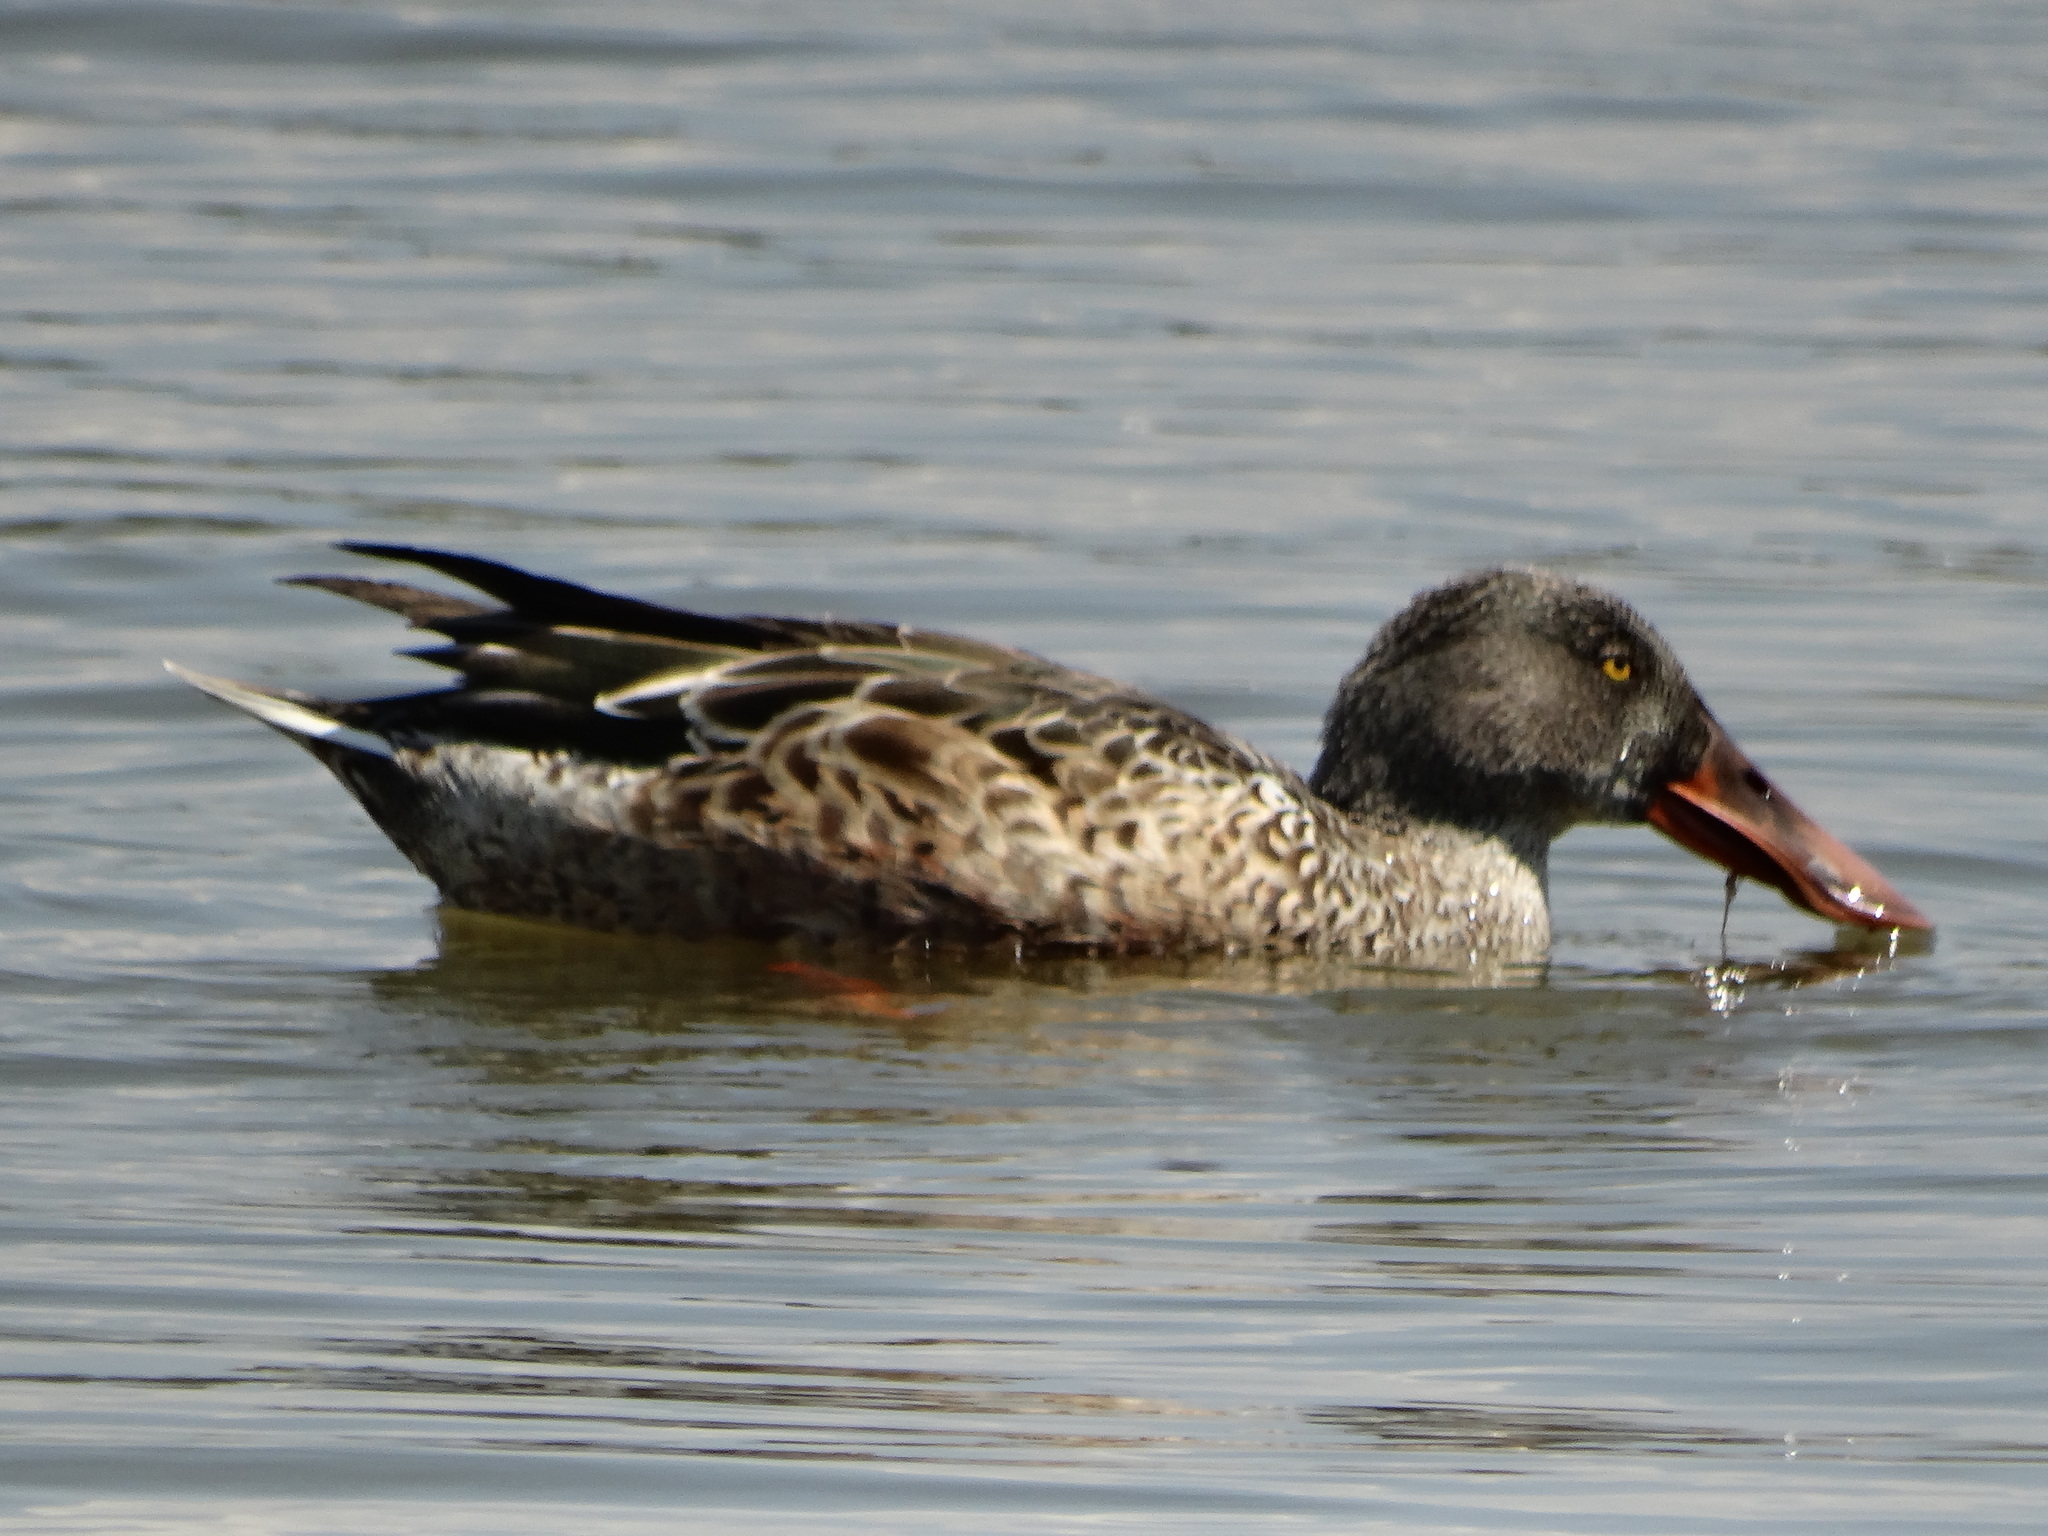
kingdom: Animalia
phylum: Chordata
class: Aves
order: Anseriformes
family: Anatidae
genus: Spatula
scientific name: Spatula clypeata
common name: Northern shoveler
